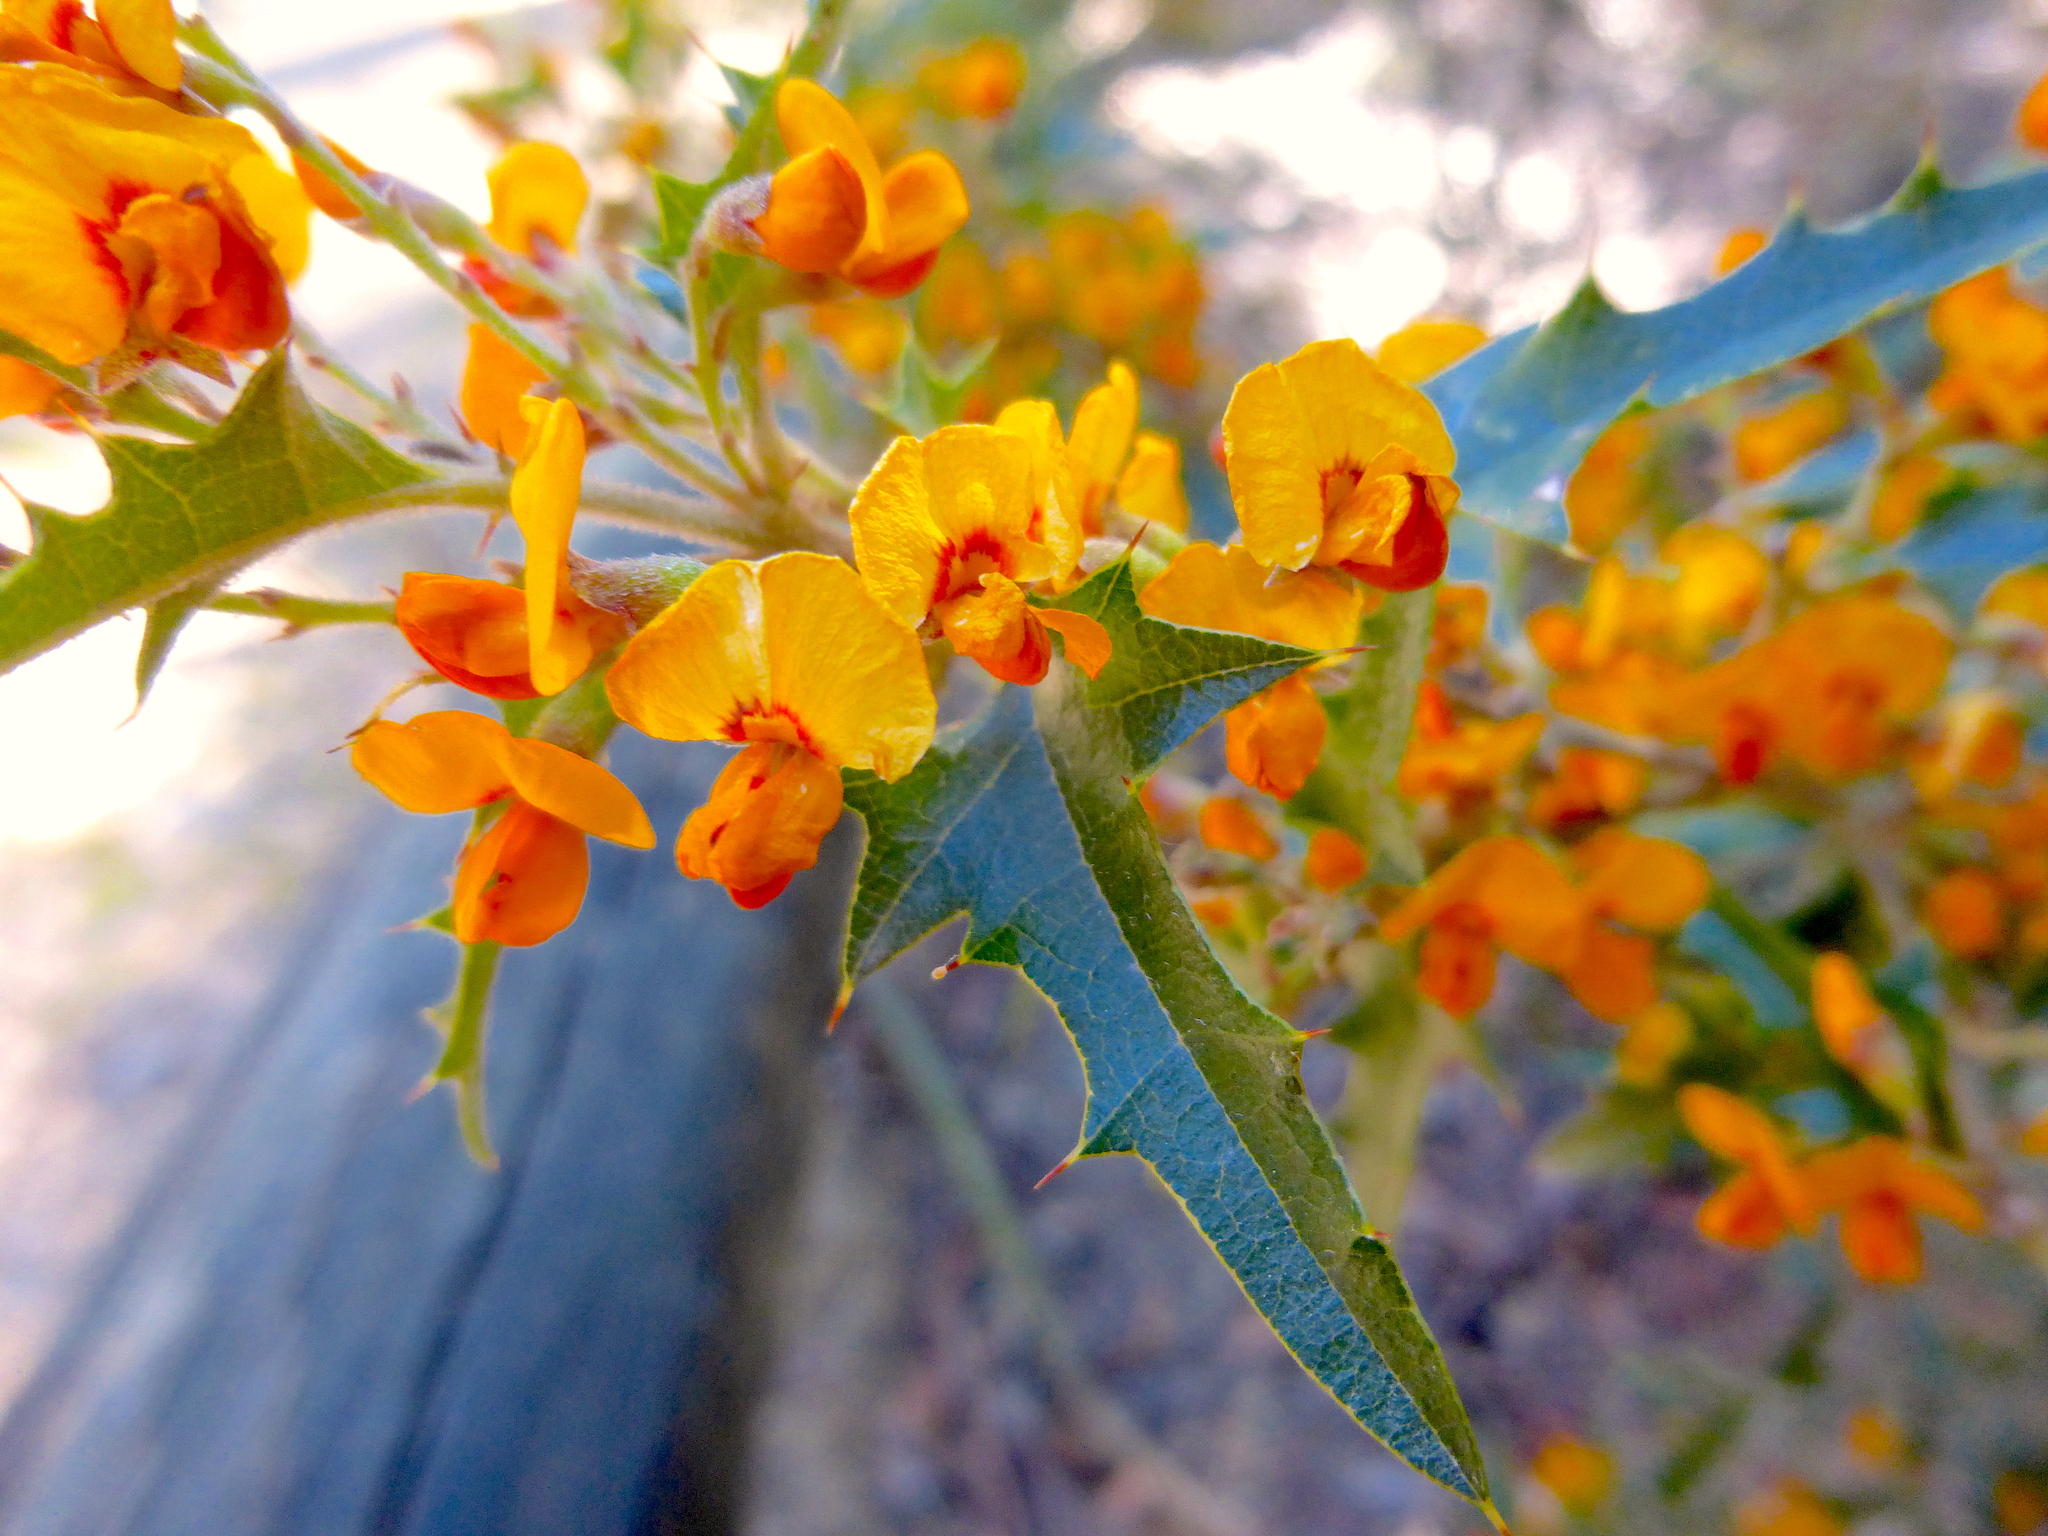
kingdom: Plantae
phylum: Tracheophyta
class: Magnoliopsida
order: Fabales
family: Fabaceae
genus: Podolobium
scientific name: Podolobium ilicifolium
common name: Native holly
